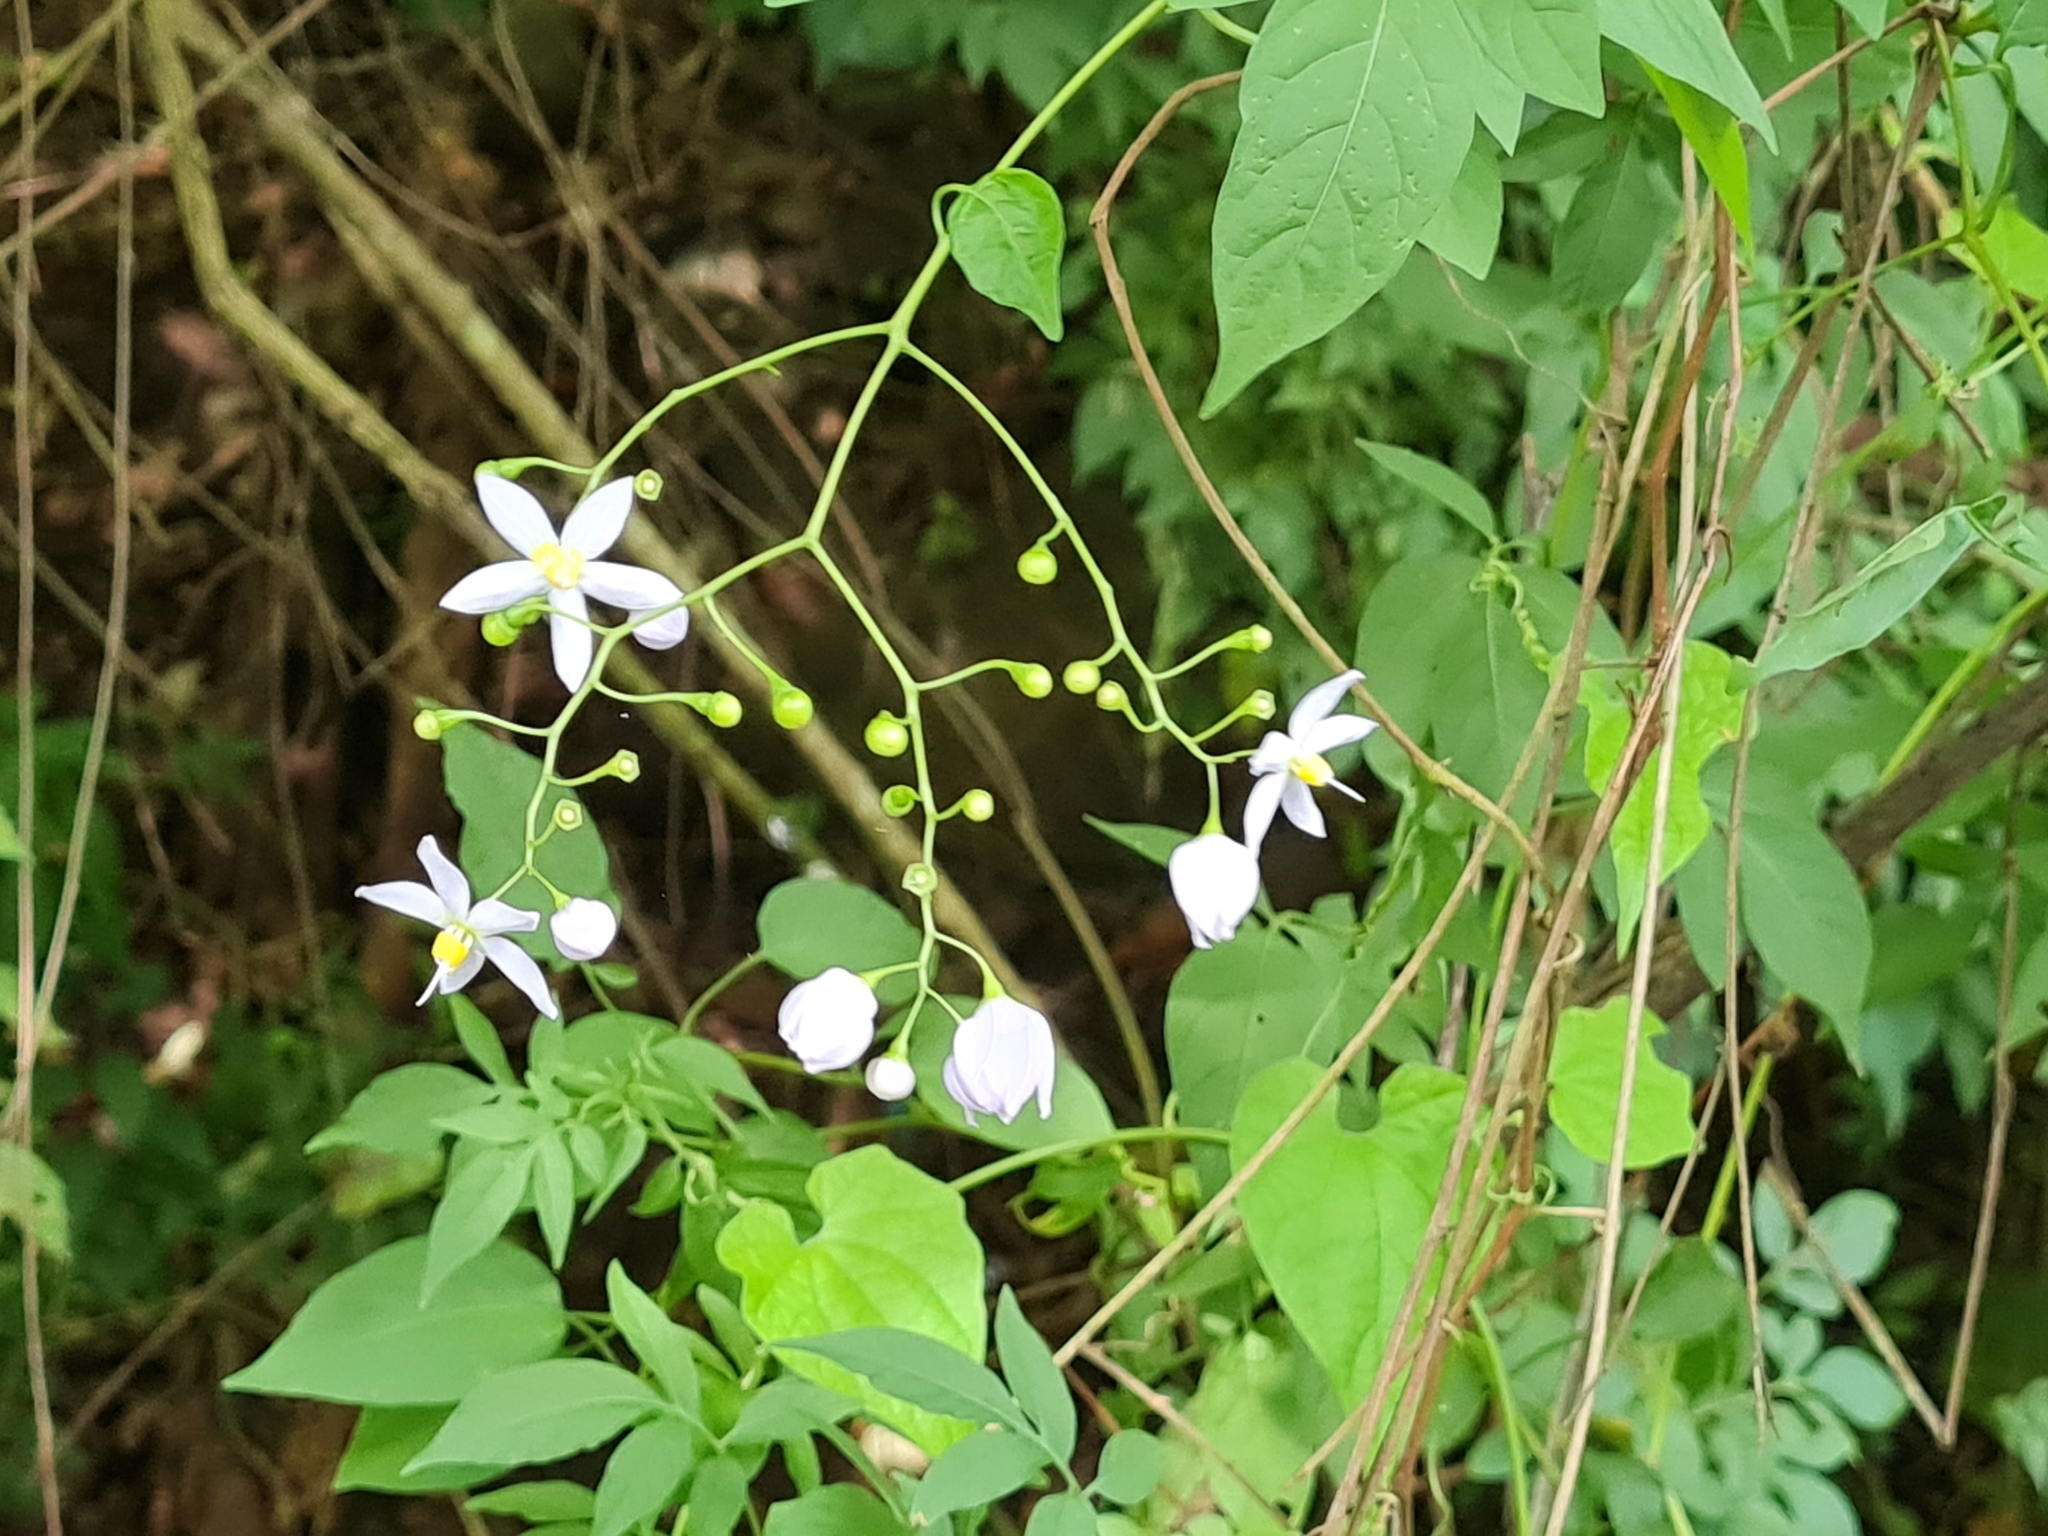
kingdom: Plantae
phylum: Tracheophyta
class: Magnoliopsida
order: Solanales
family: Solanaceae
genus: Solanum
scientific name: Solanum seaforthianum
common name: Brazilian nightshade
